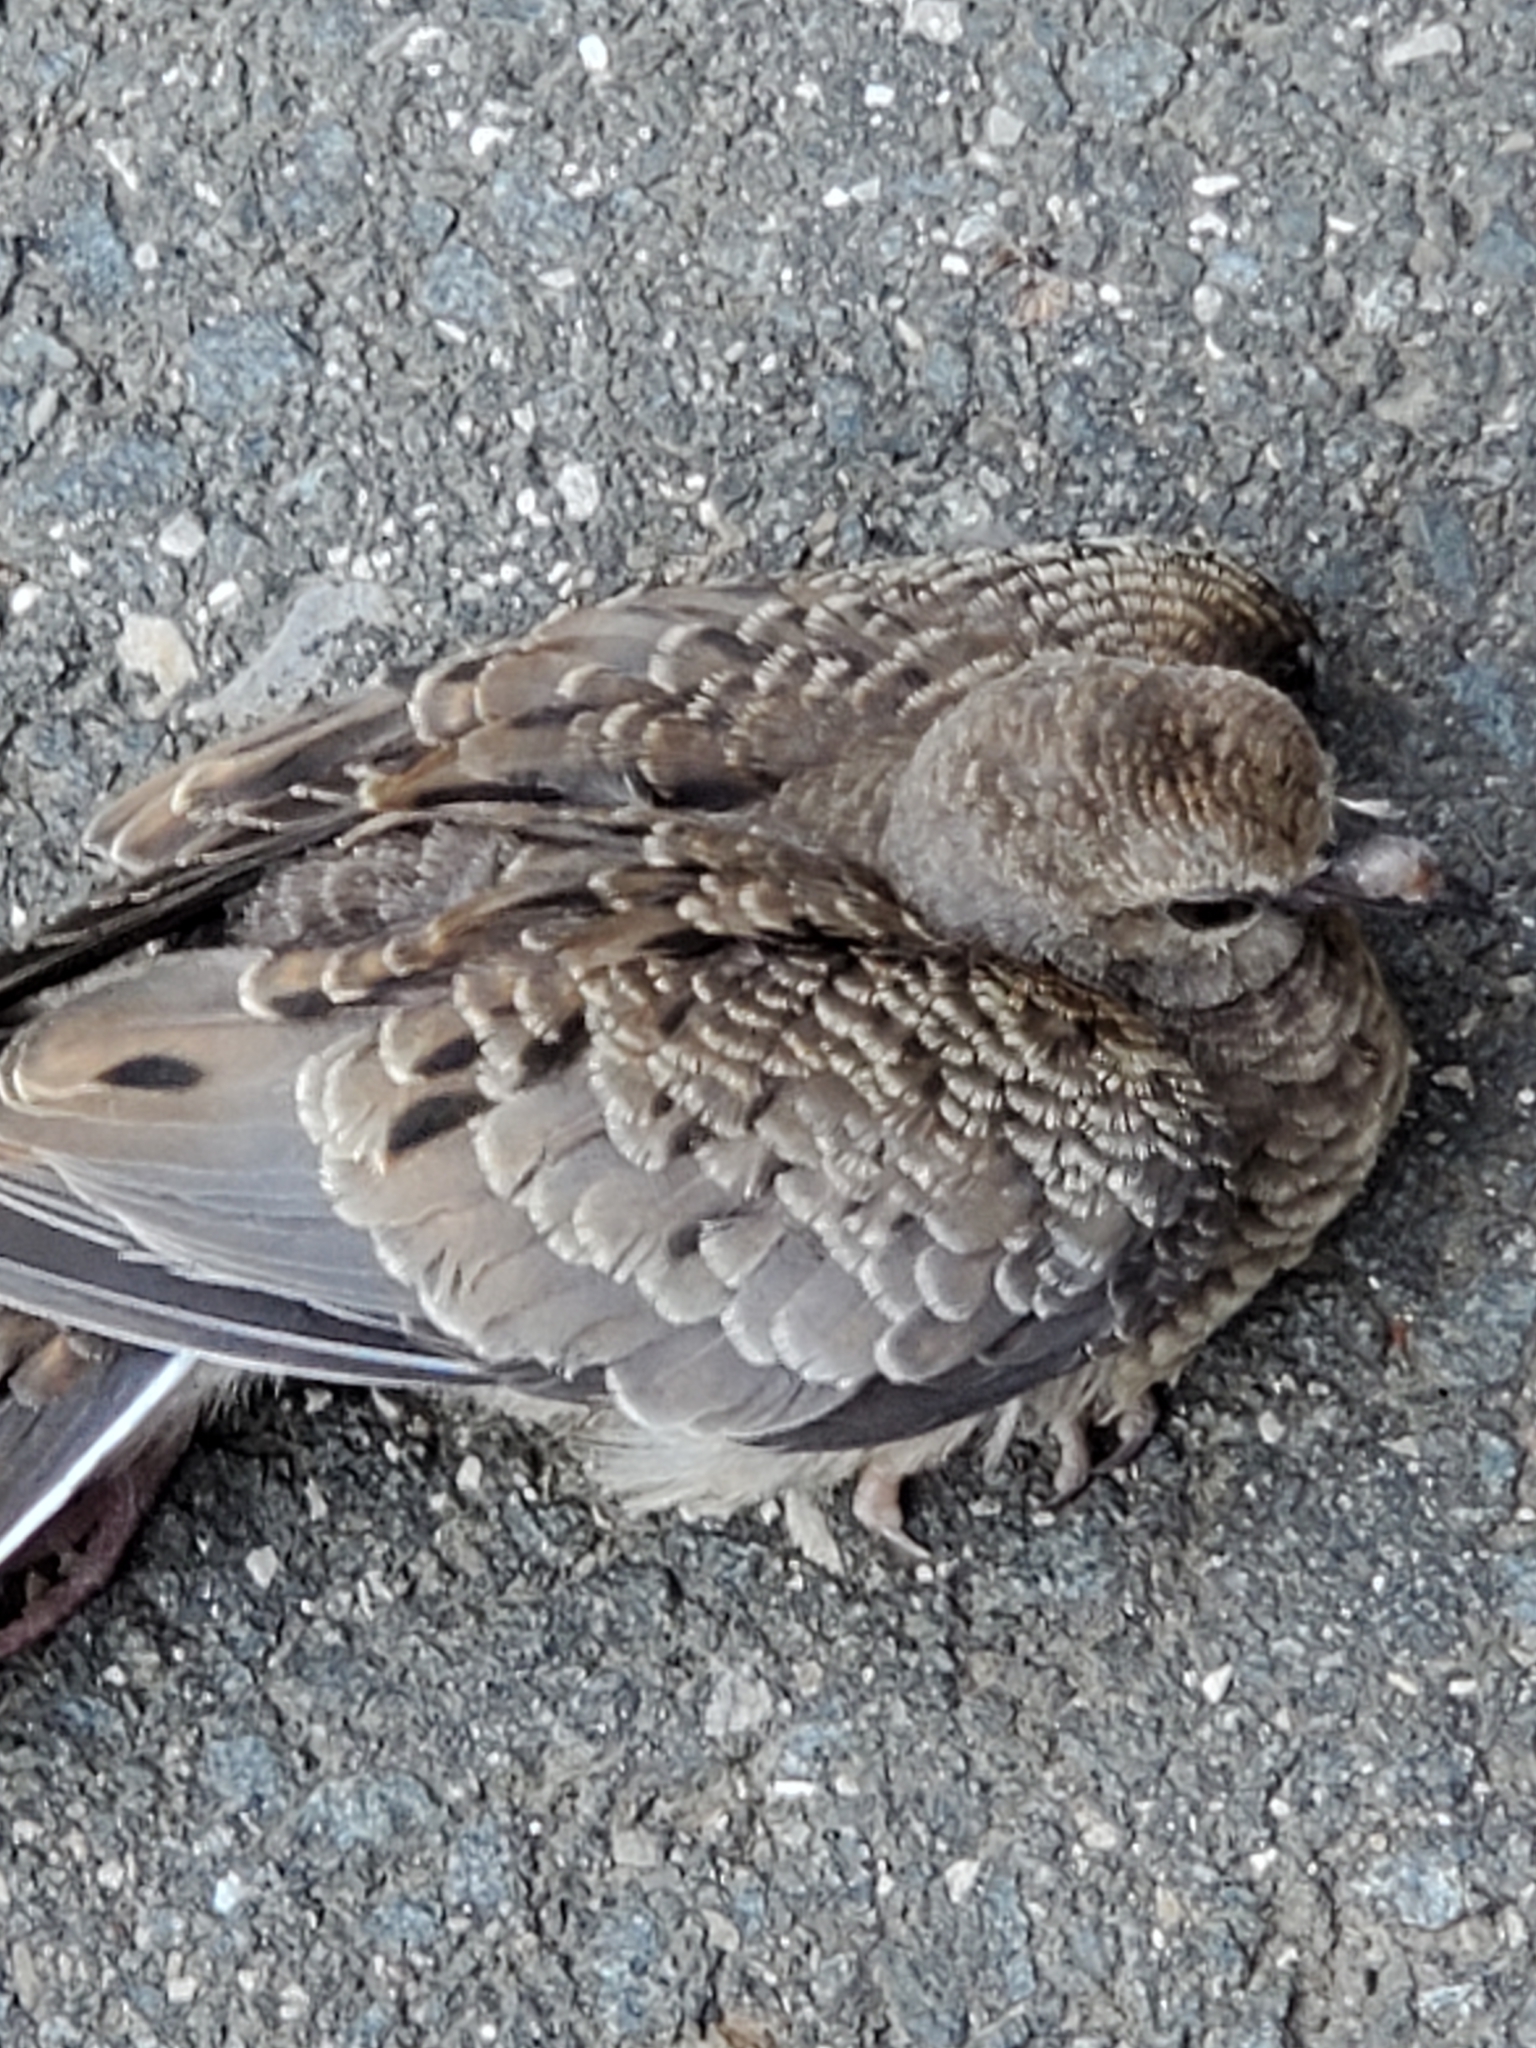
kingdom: Animalia
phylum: Chordata
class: Aves
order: Columbiformes
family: Columbidae
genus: Zenaida
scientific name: Zenaida macroura
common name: Mourning dove
